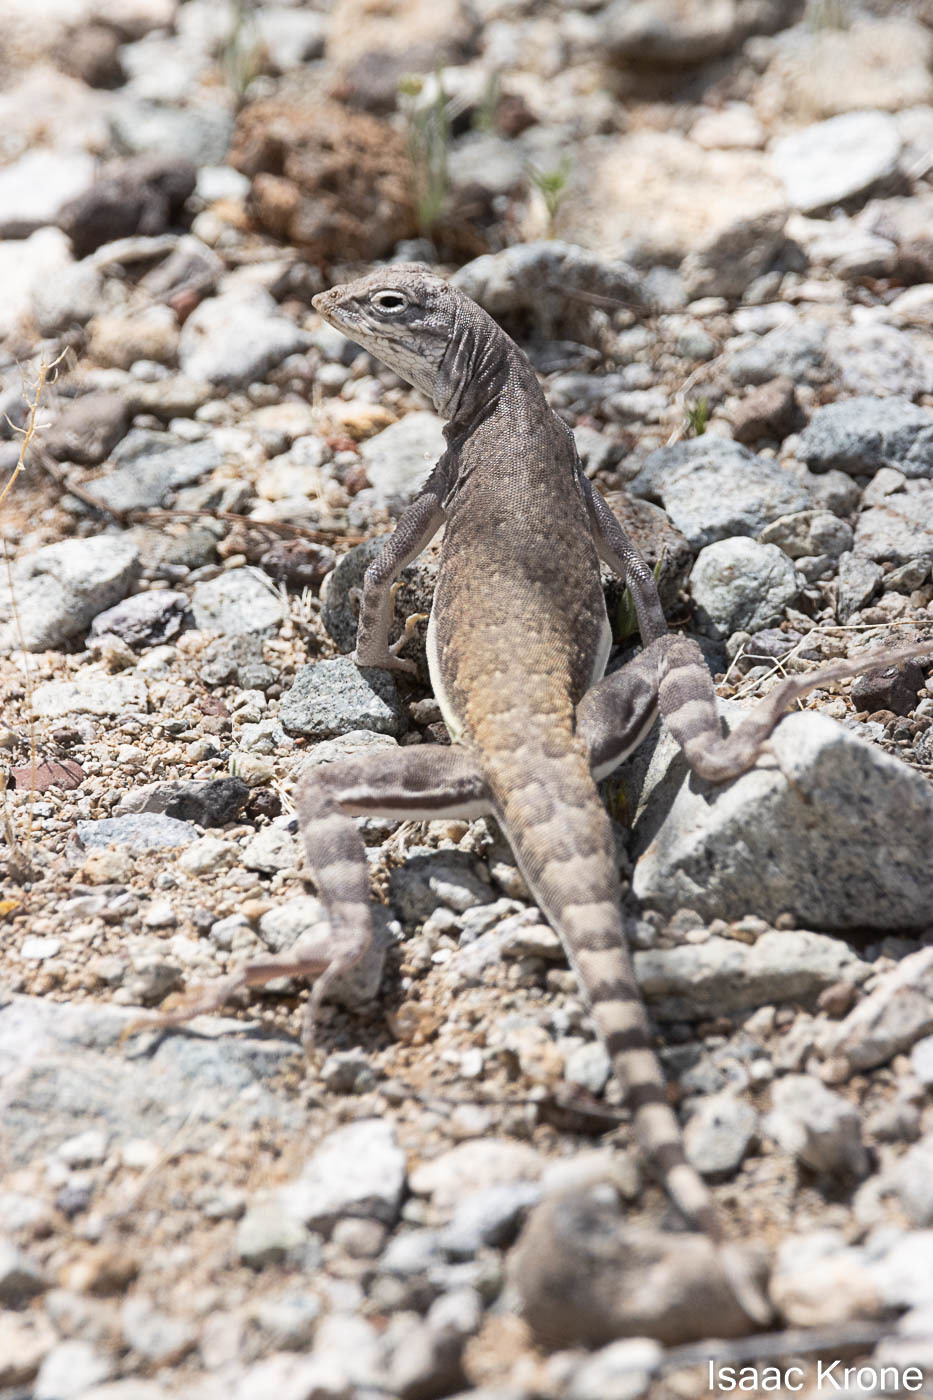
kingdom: Animalia
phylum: Chordata
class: Squamata
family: Phrynosomatidae
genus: Callisaurus
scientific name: Callisaurus draconoides
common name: Zebra-tailed lizard
